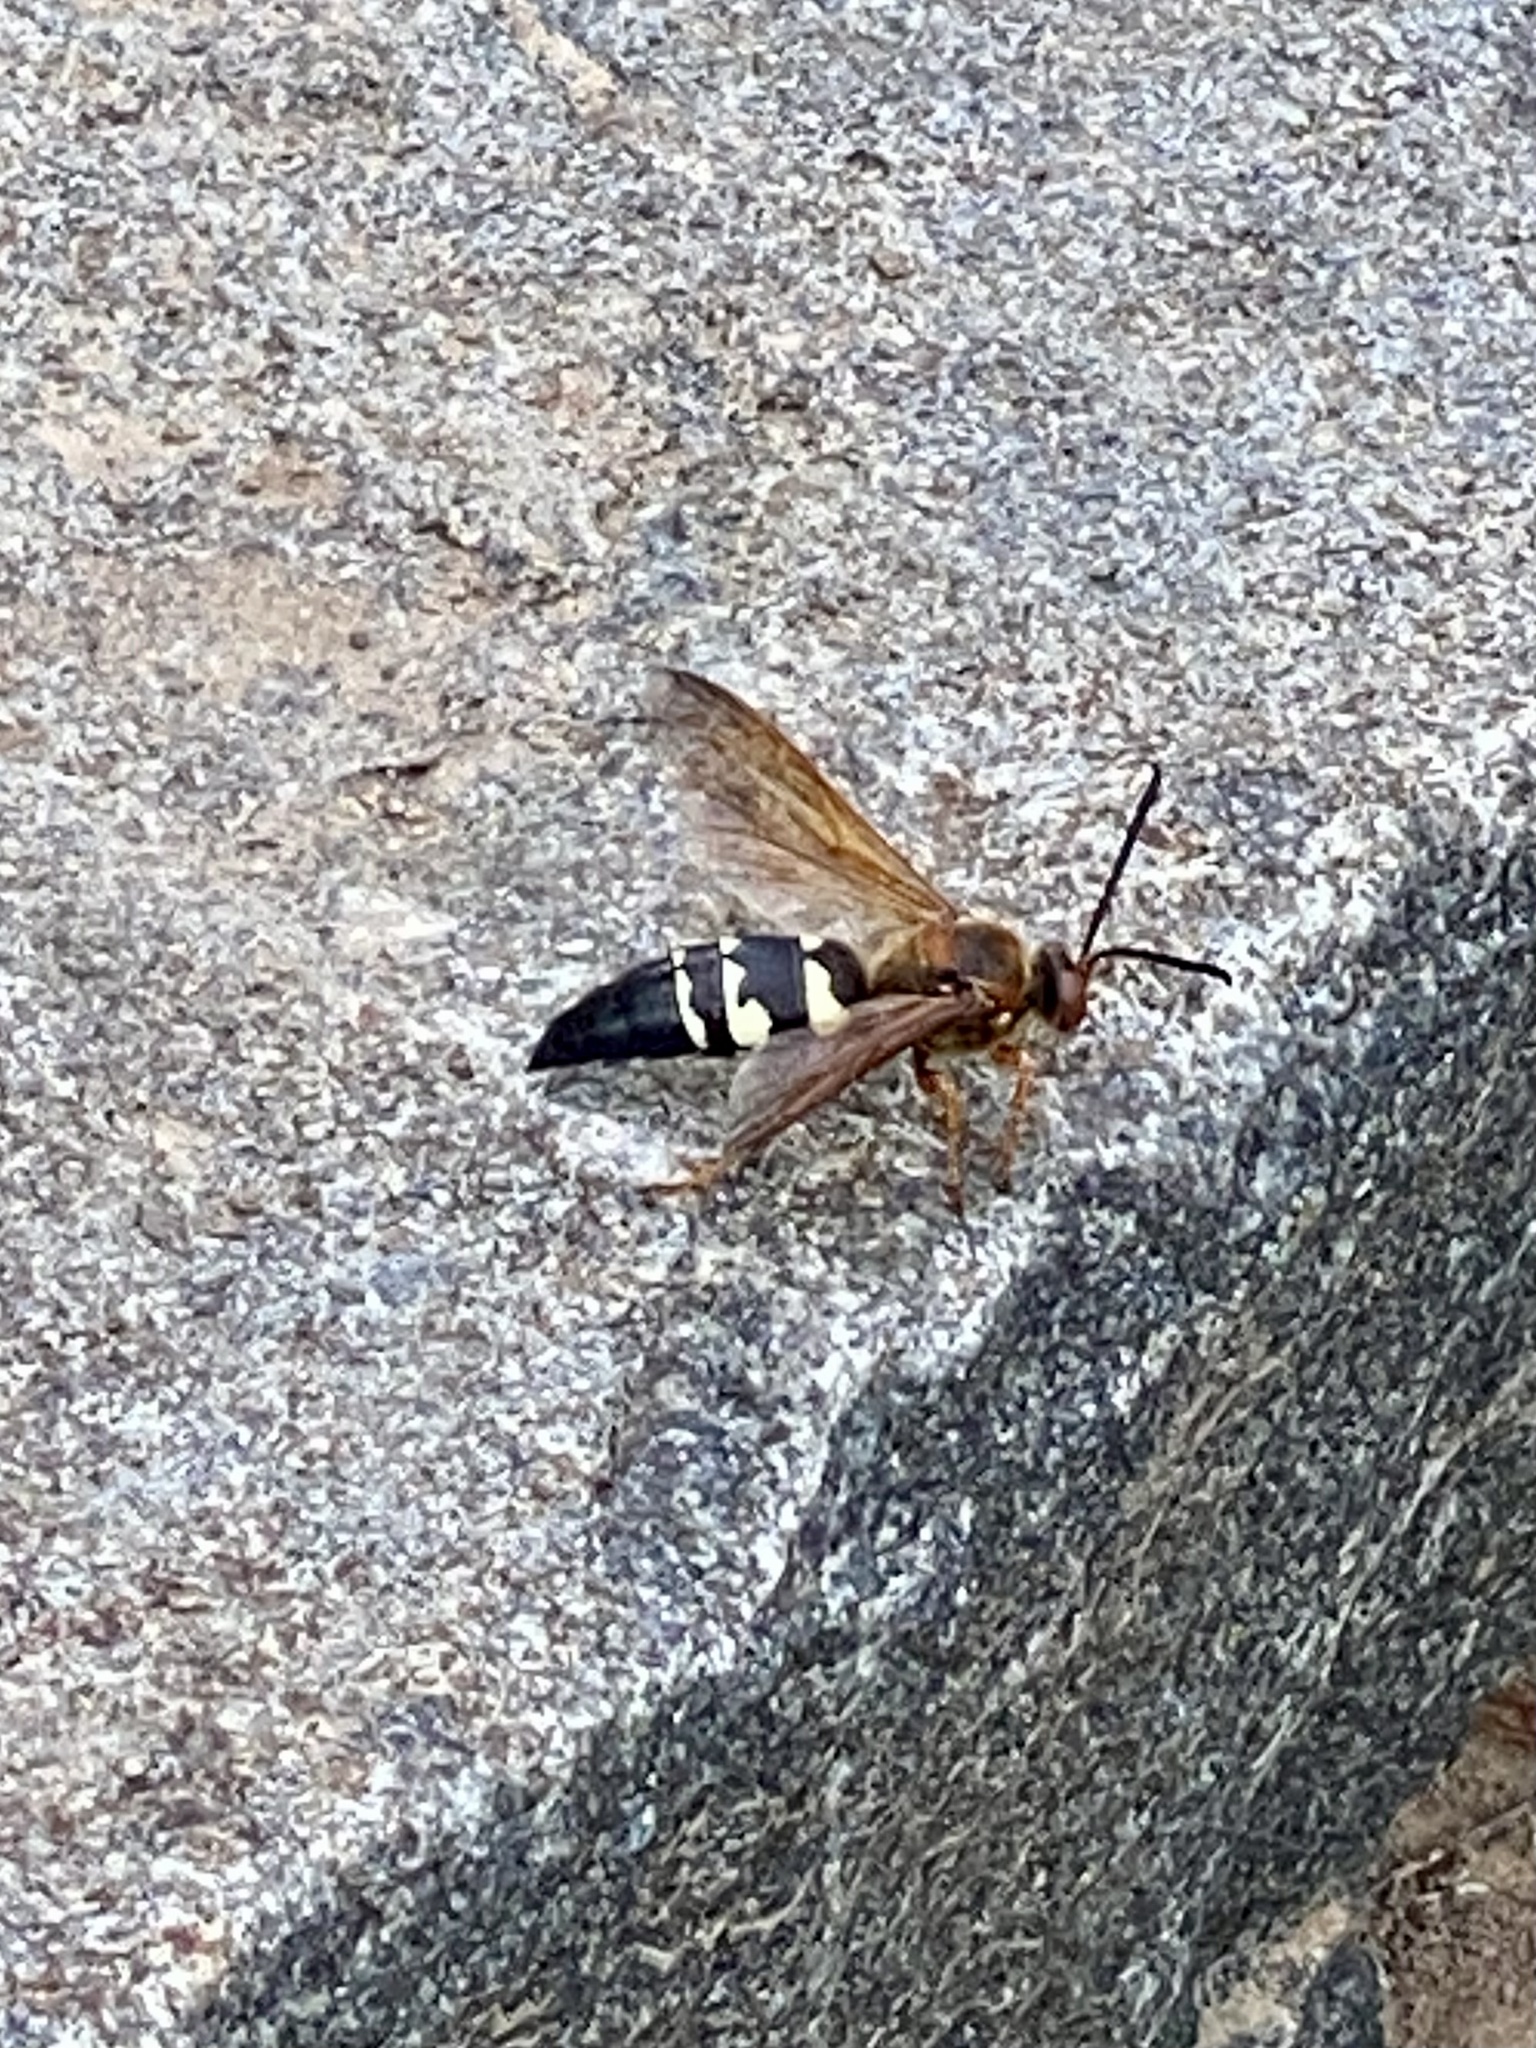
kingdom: Animalia
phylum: Arthropoda
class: Insecta
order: Hymenoptera
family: Crabronidae
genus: Sphecius
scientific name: Sphecius speciosus
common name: Cicada killer
